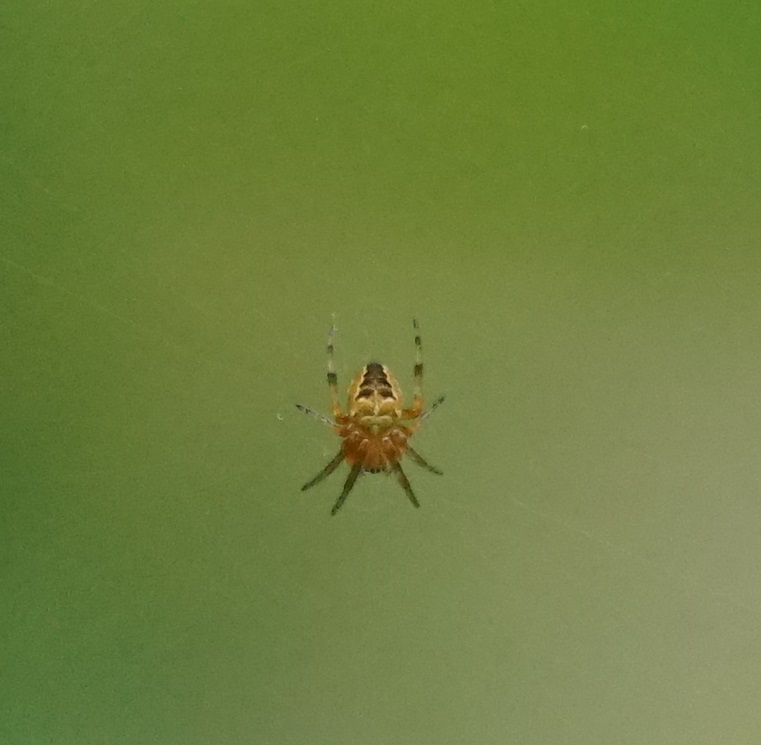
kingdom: Animalia
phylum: Arthropoda
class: Arachnida
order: Araneae
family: Araneidae
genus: Araneus
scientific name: Araneus diadematus
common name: Cross orbweaver
